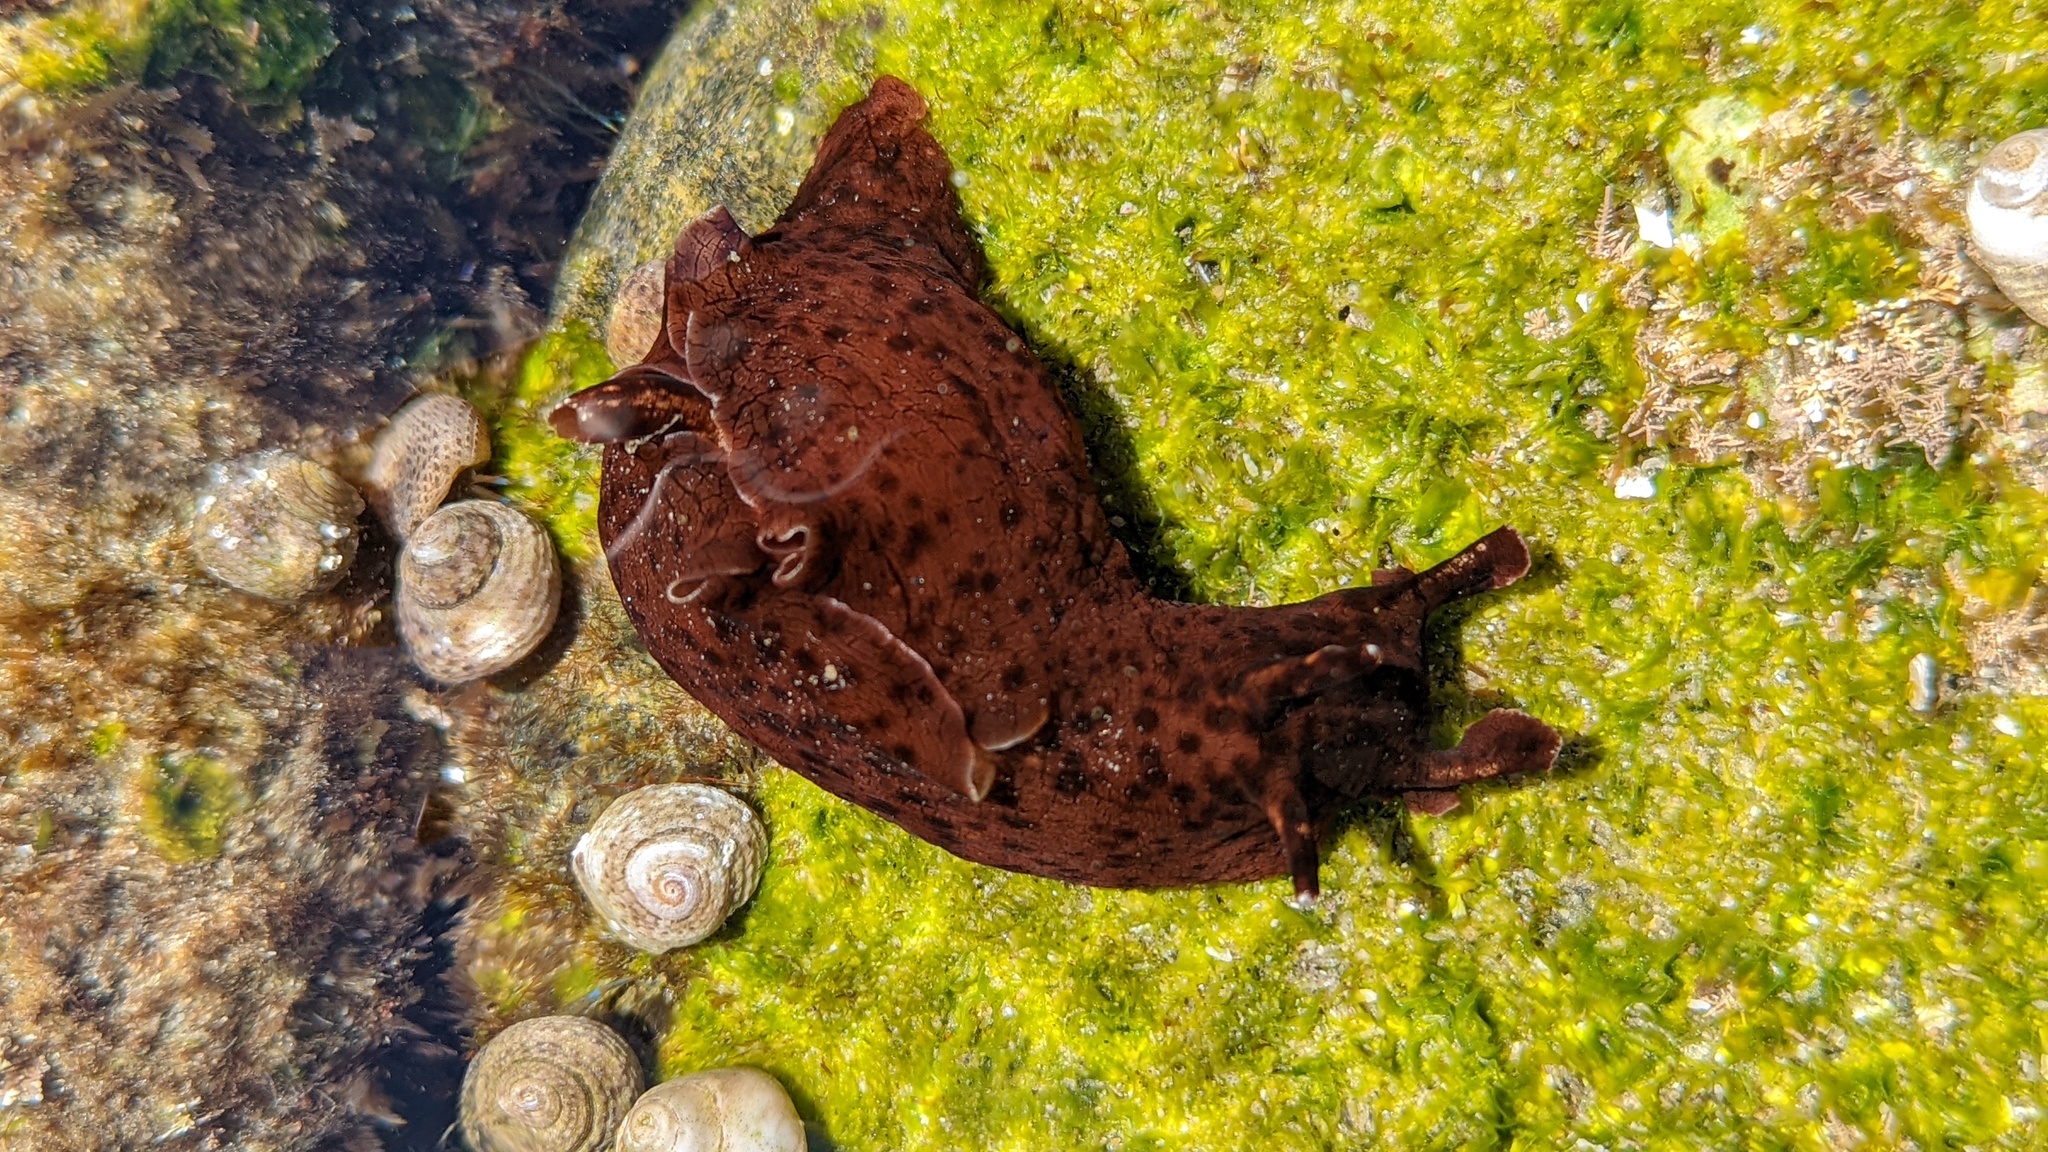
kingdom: Animalia
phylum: Mollusca
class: Gastropoda
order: Aplysiida
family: Aplysiidae
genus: Aplysia
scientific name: Aplysia californica
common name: California seahare
